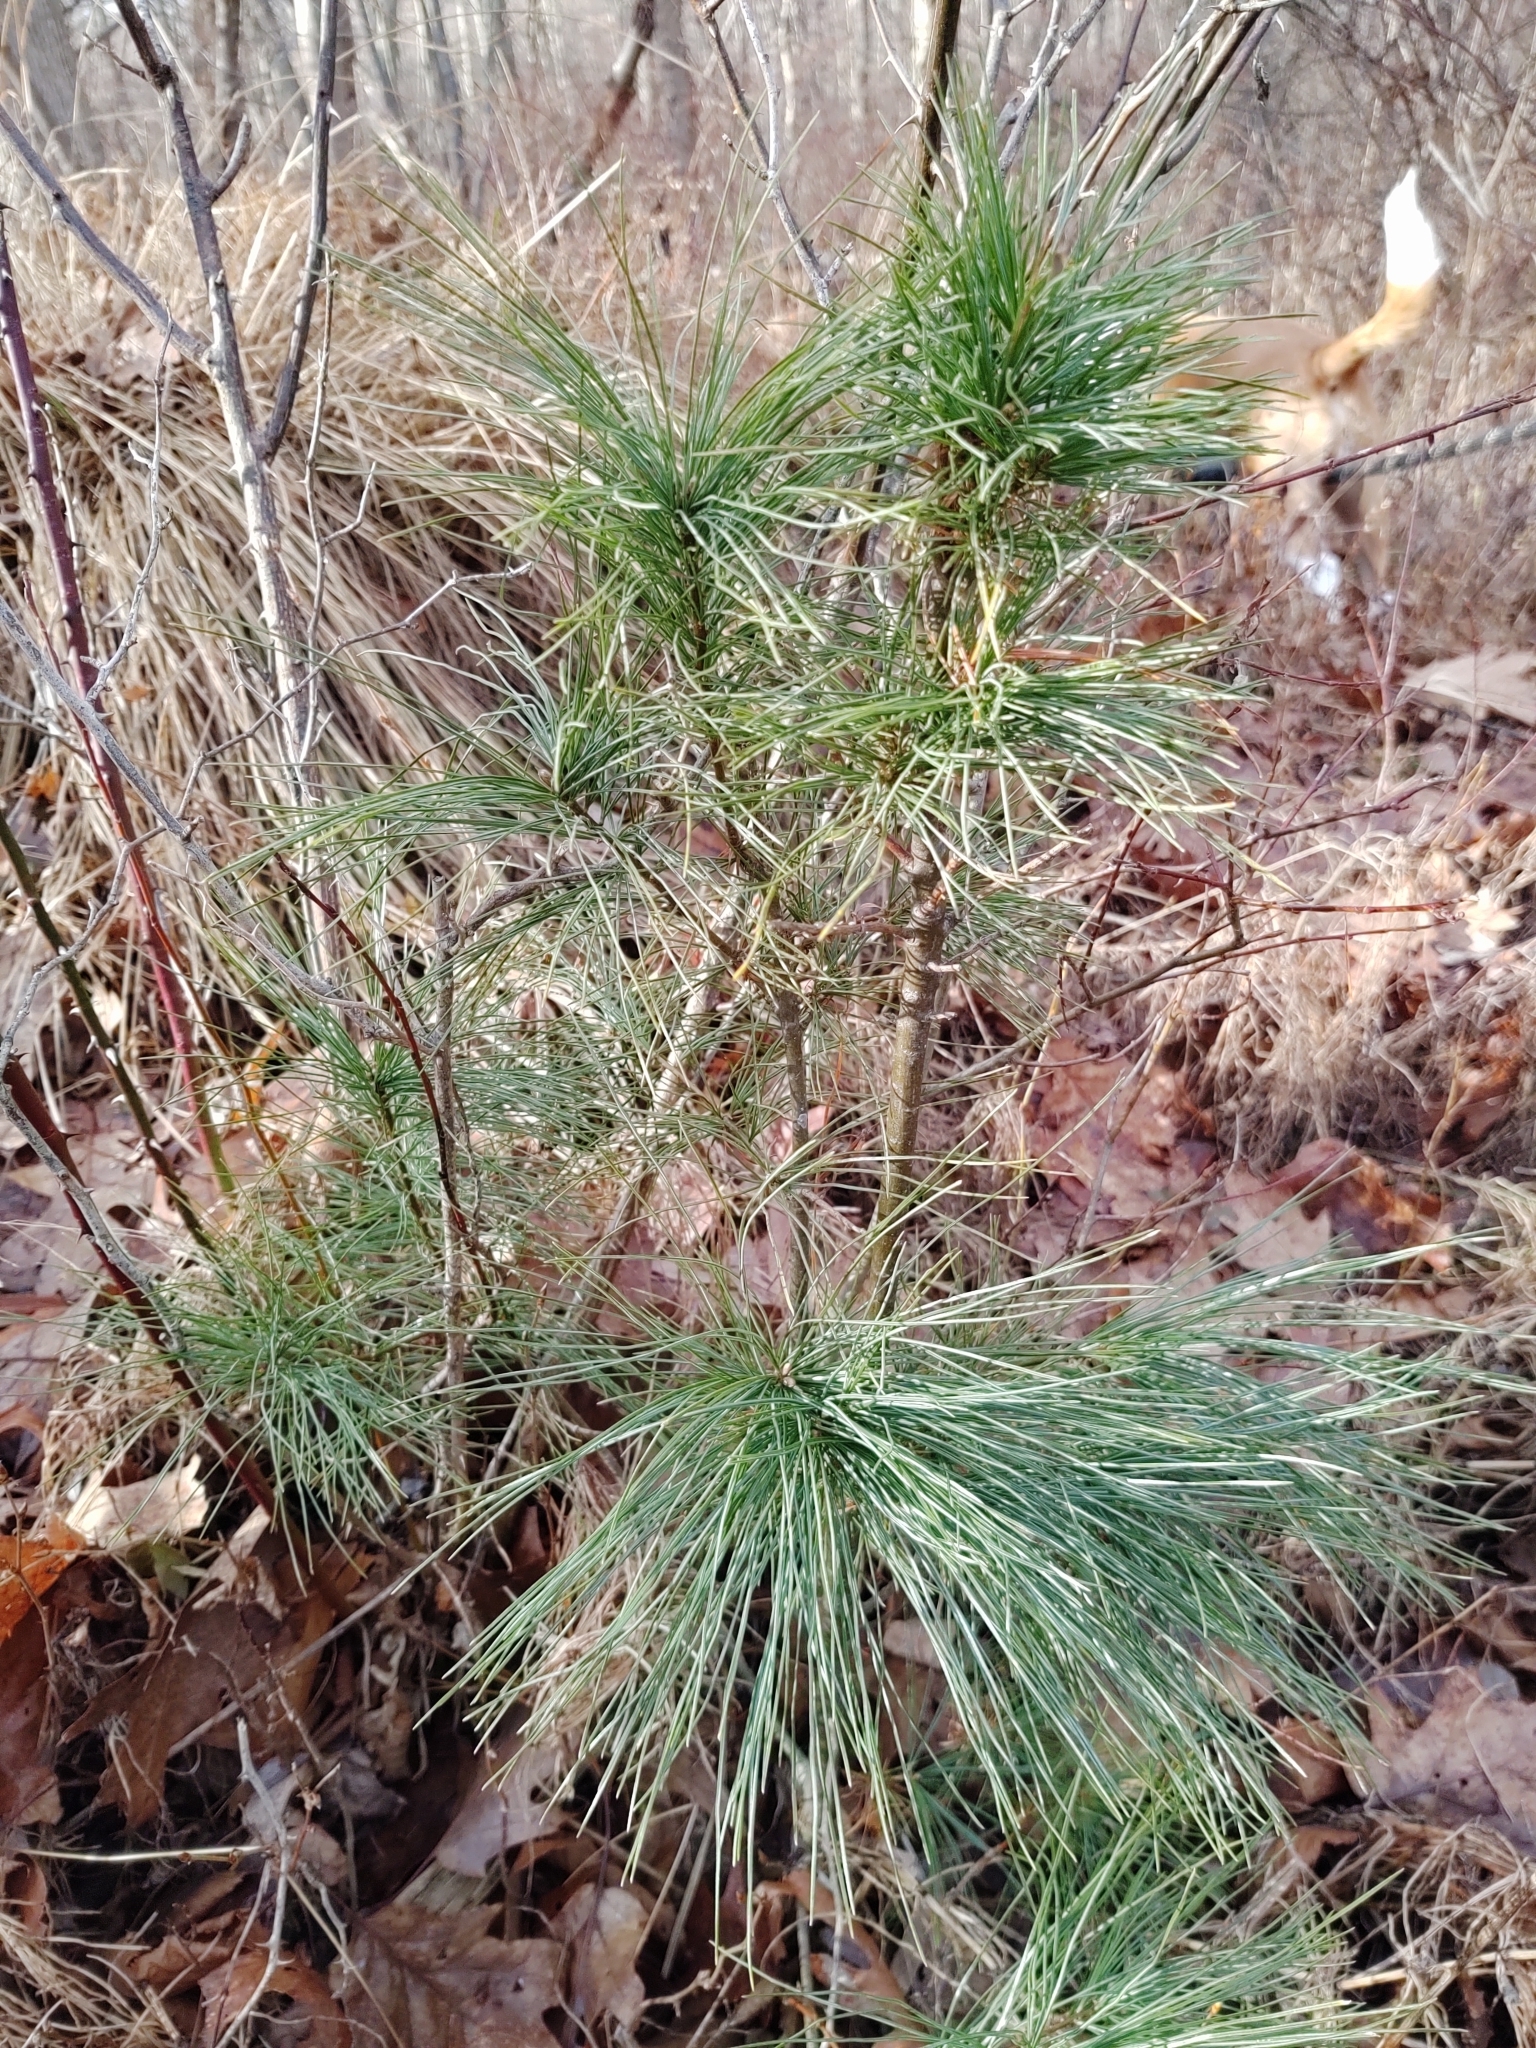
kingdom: Plantae
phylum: Tracheophyta
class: Pinopsida
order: Pinales
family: Pinaceae
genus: Pinus
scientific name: Pinus strobus
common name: Weymouth pine
